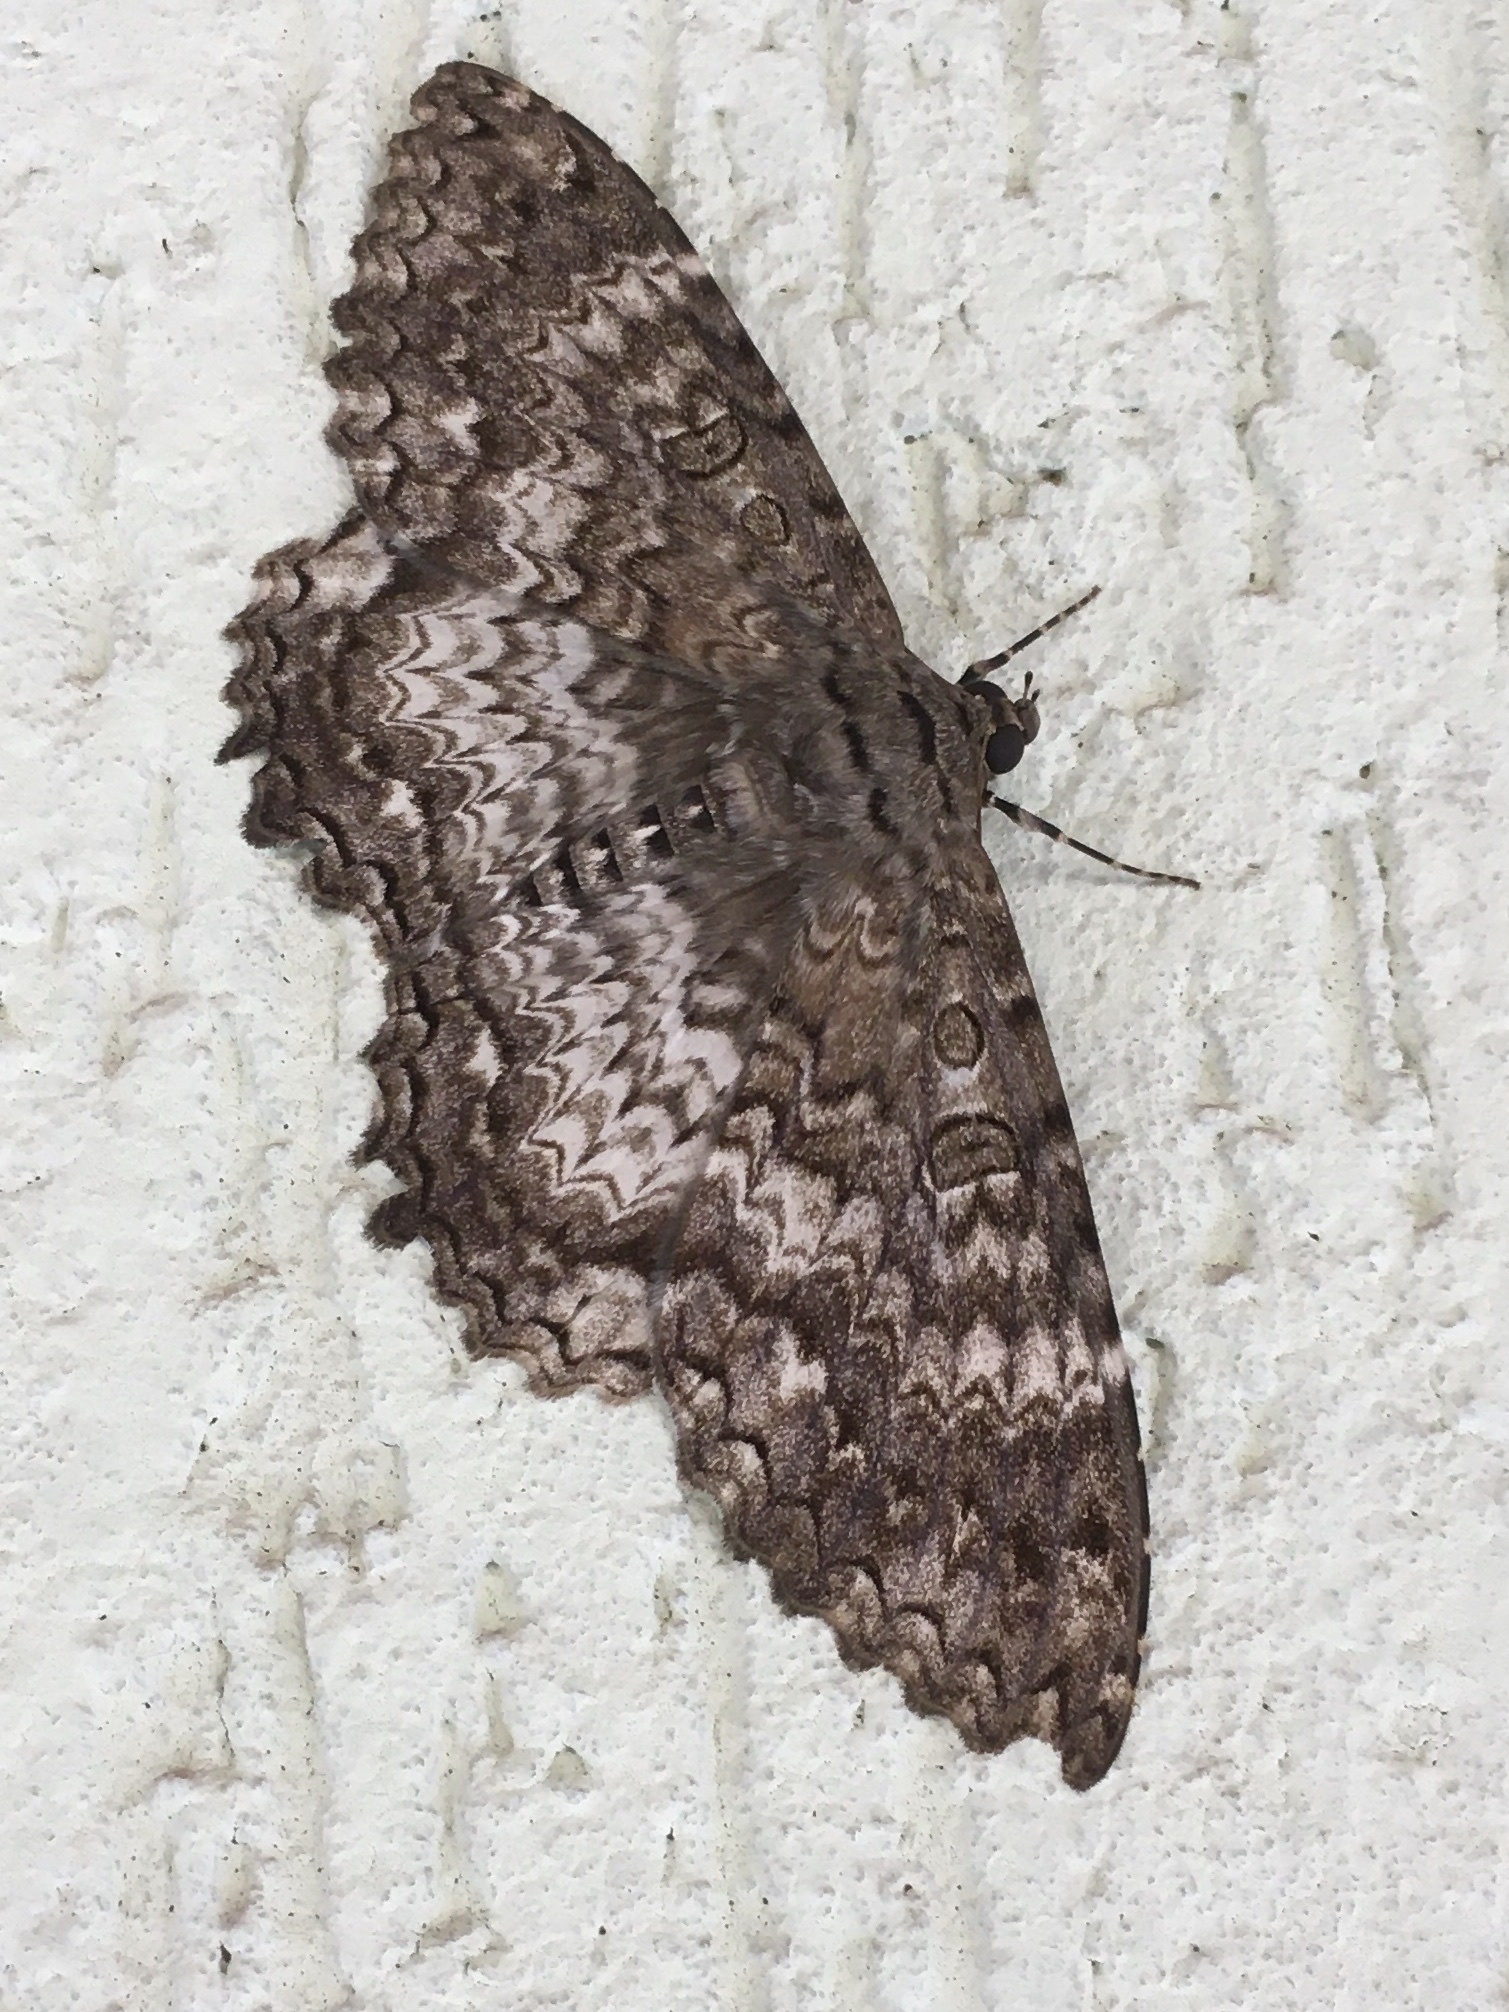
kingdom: Animalia
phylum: Arthropoda
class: Insecta
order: Lepidoptera
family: Erebidae
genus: Feigeria
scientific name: Feigeria scops
